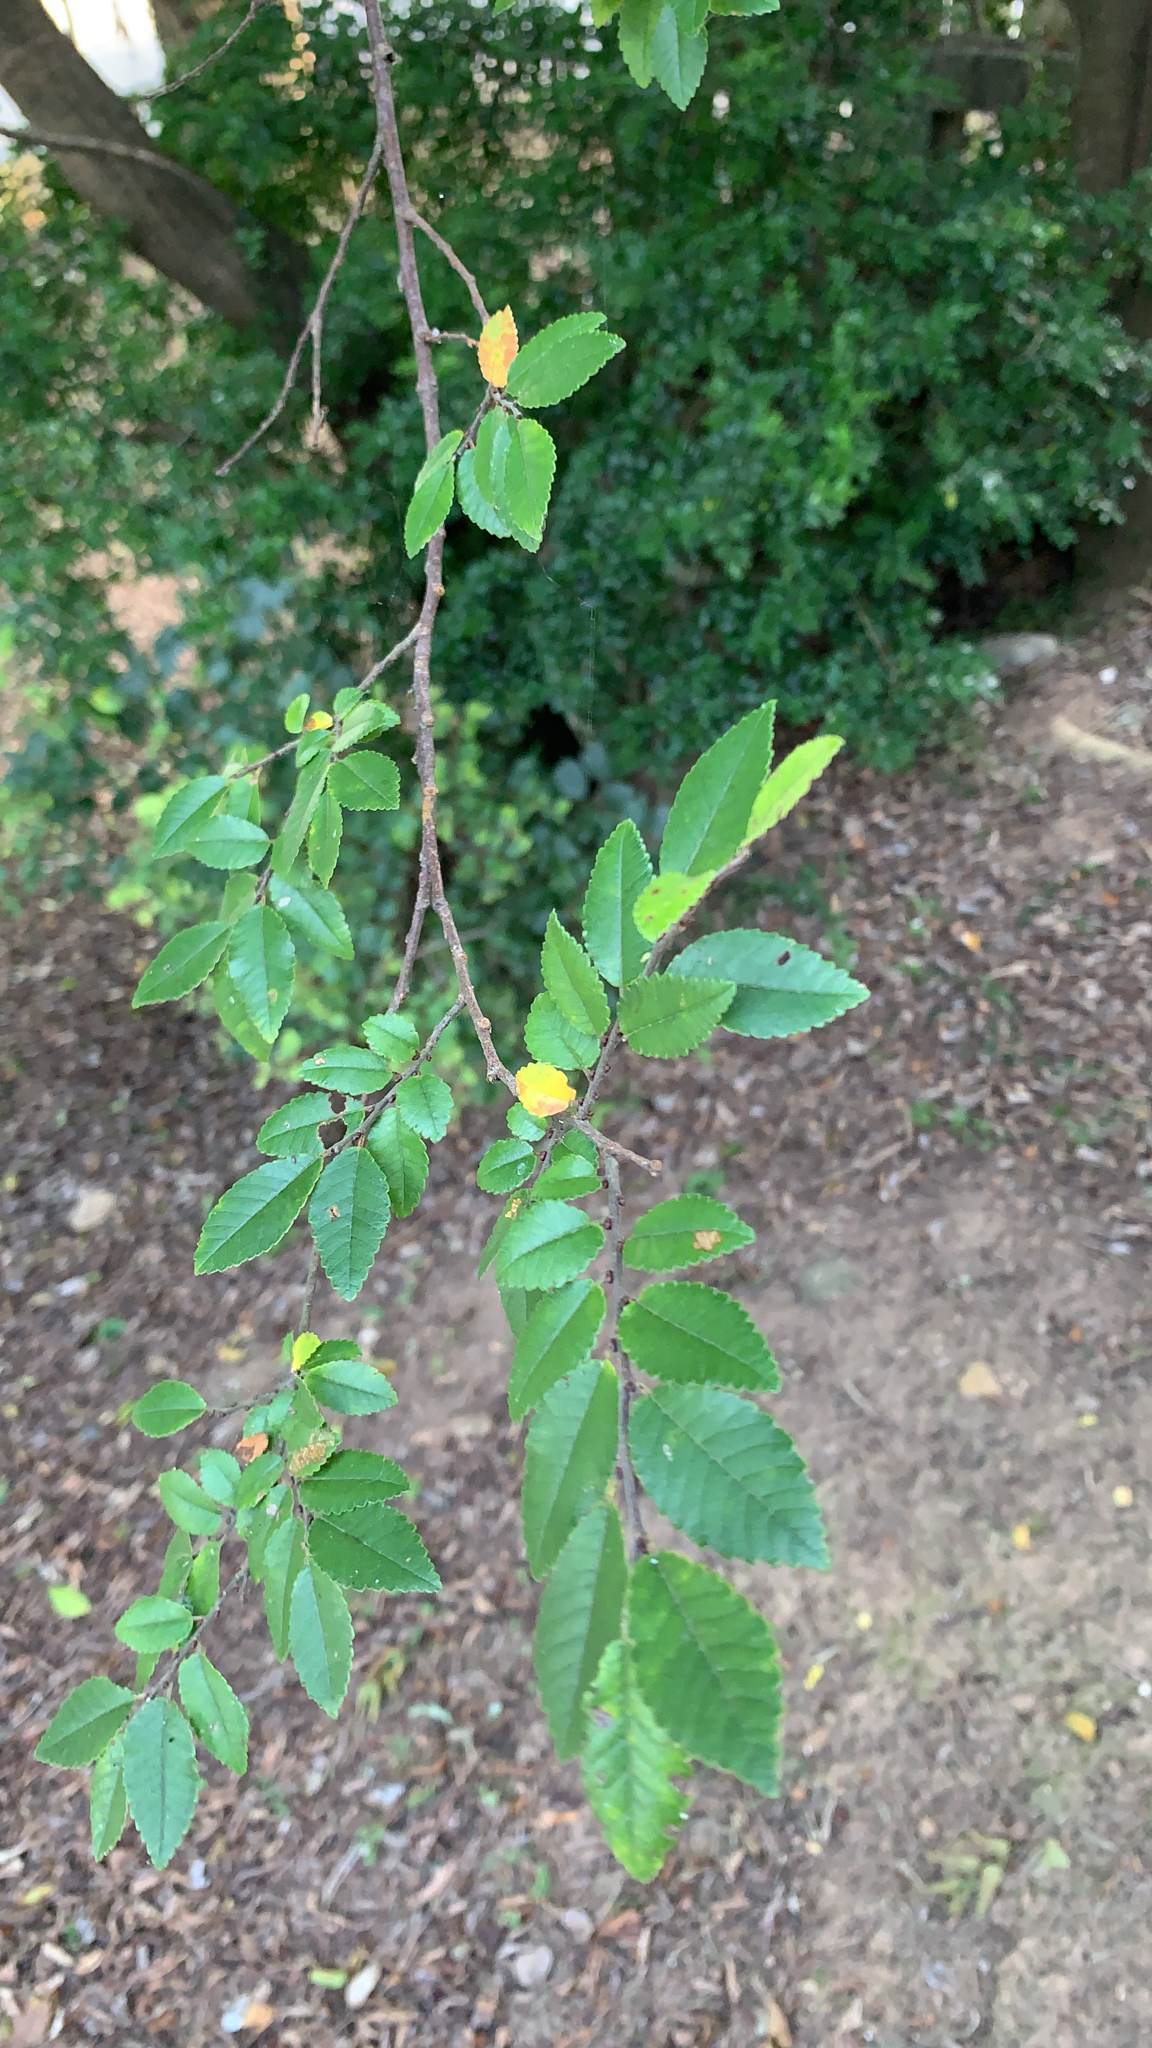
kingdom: Plantae
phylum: Tracheophyta
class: Magnoliopsida
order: Rosales
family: Ulmaceae
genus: Ulmus
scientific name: Ulmus parvifolia
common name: Chinese elm
